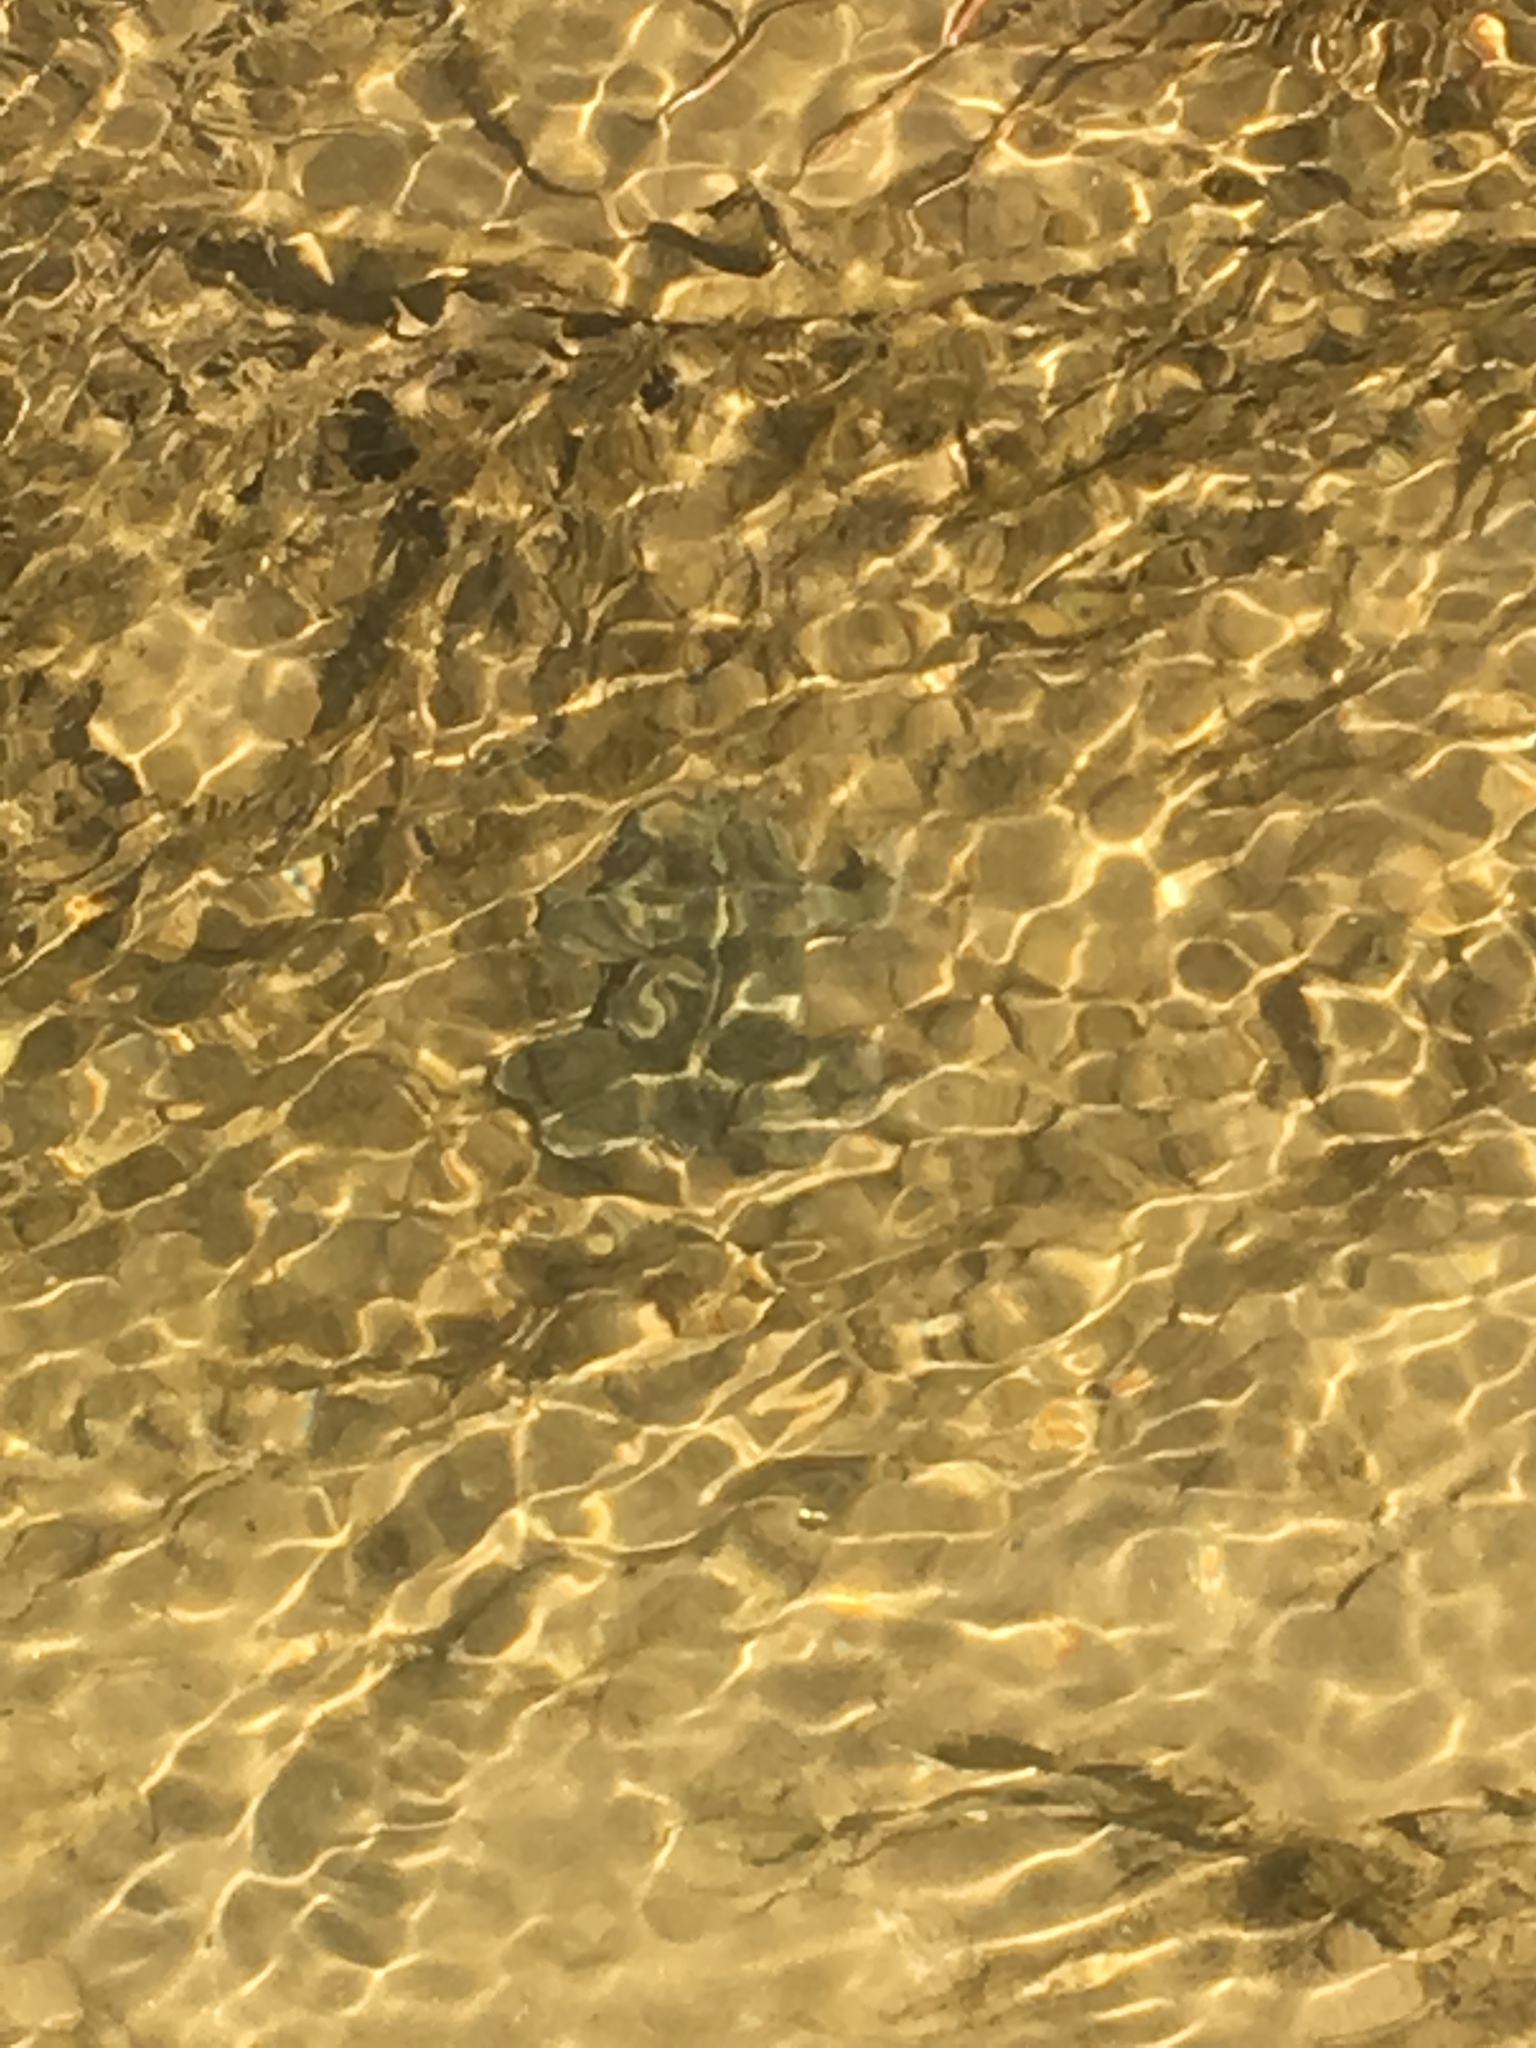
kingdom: Animalia
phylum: Chordata
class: Amphibia
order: Anura
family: Bufonidae
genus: Anaxyrus
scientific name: Anaxyrus boreas
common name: Western toad
